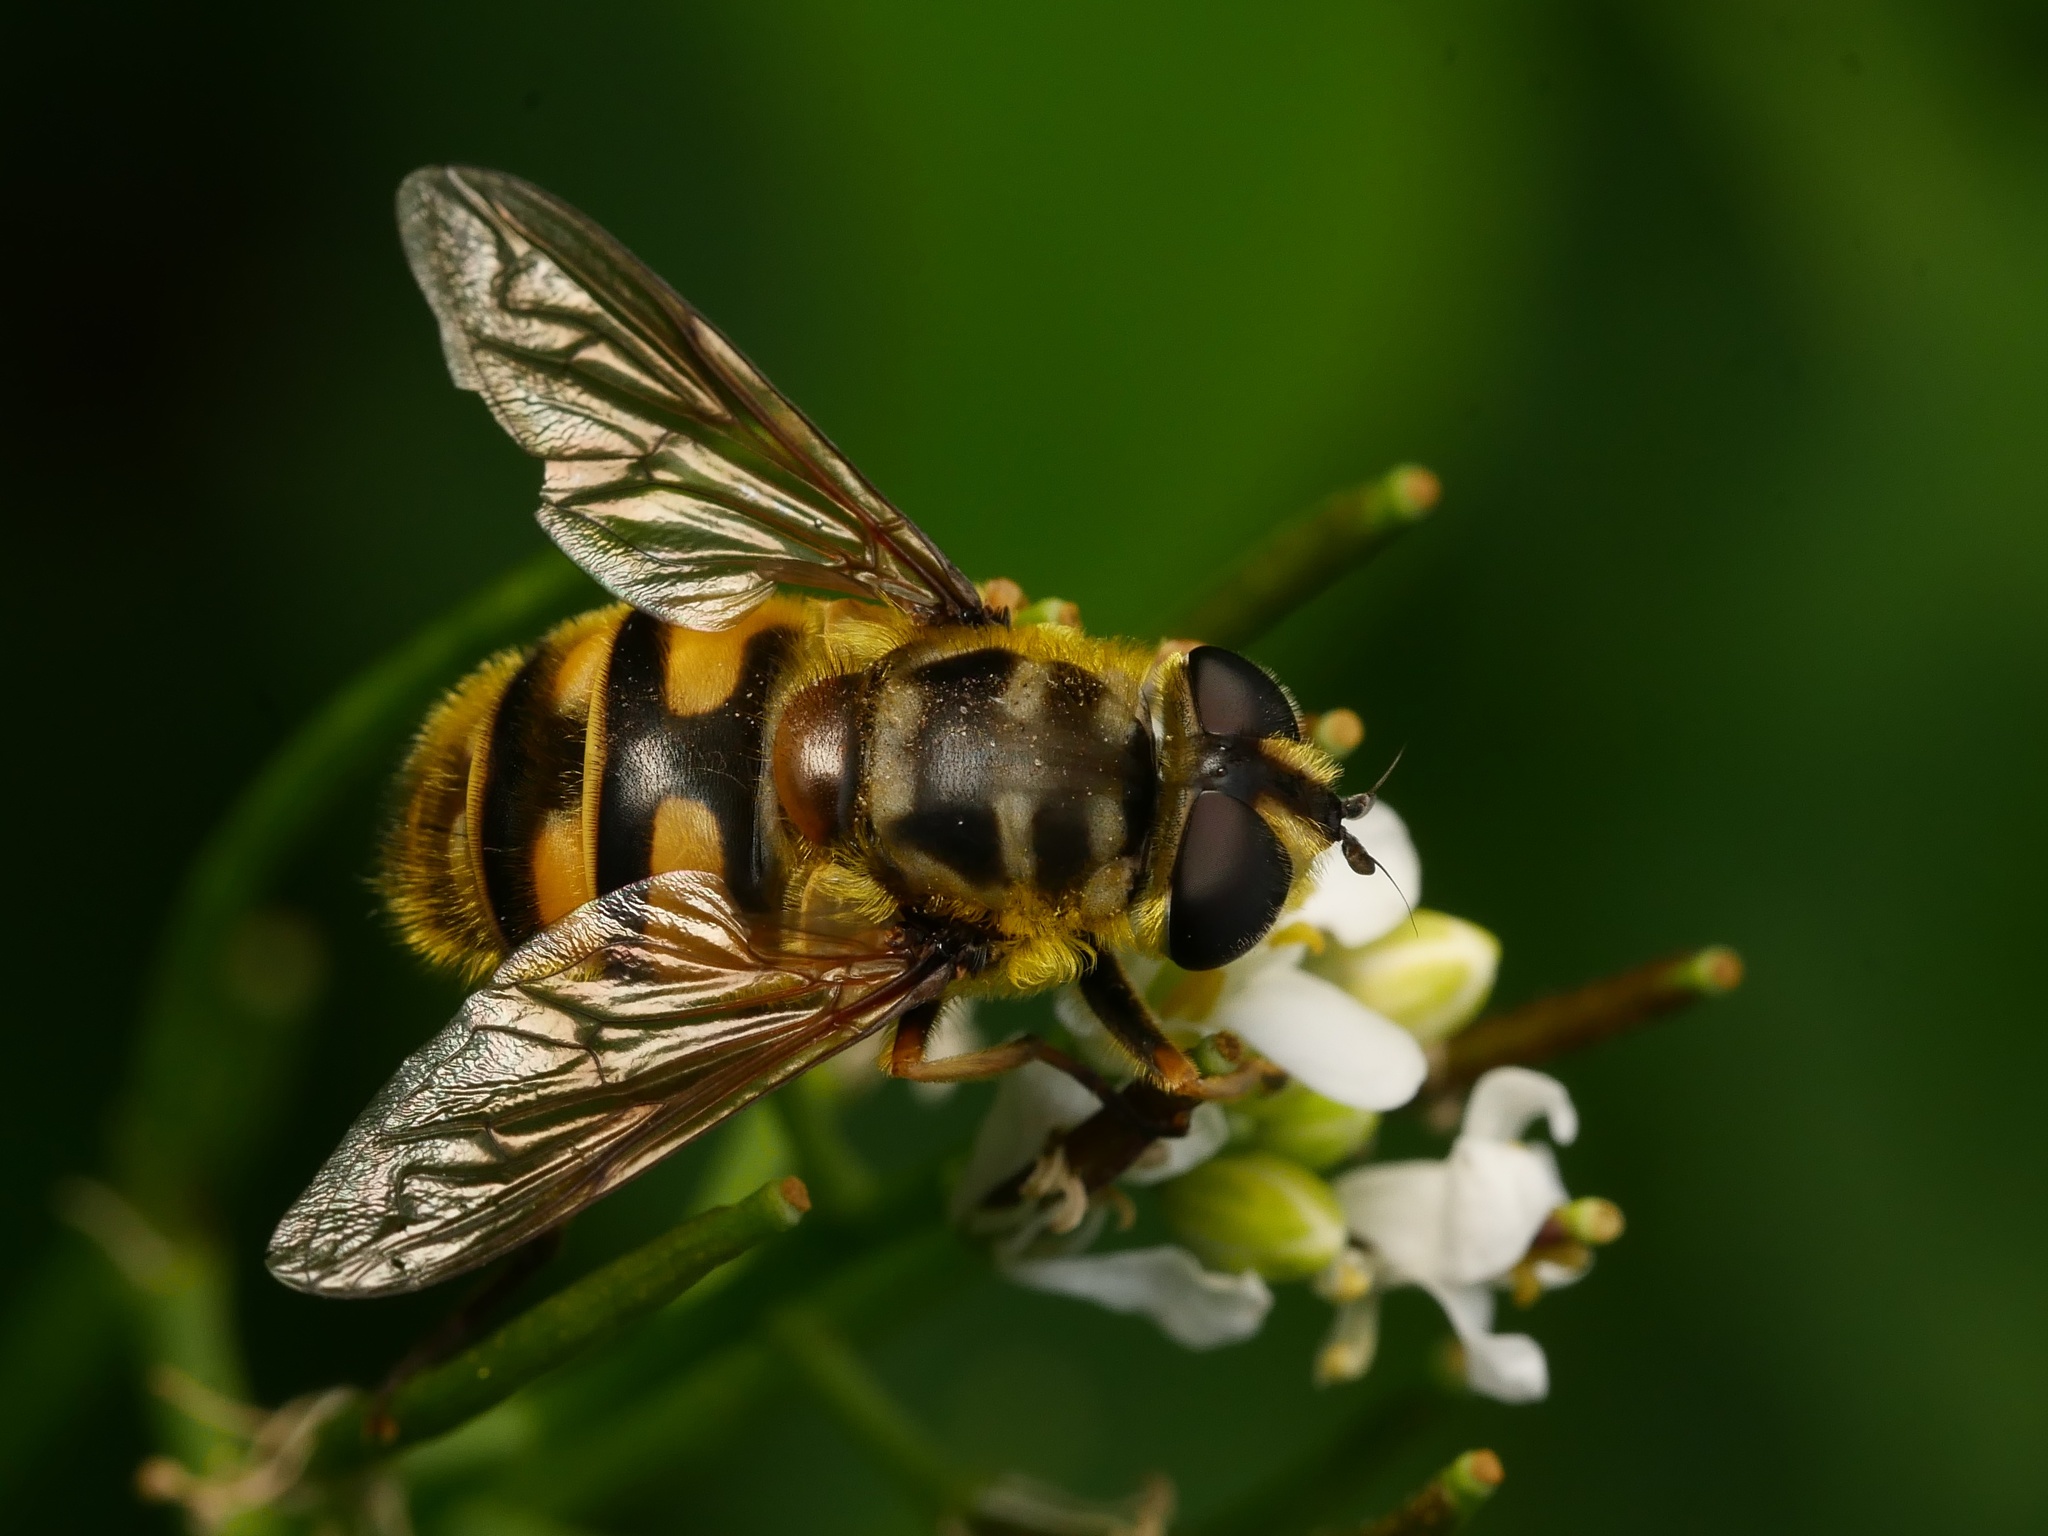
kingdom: Animalia
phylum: Arthropoda
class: Insecta
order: Diptera
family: Syrphidae
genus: Myathropa
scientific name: Myathropa florea
